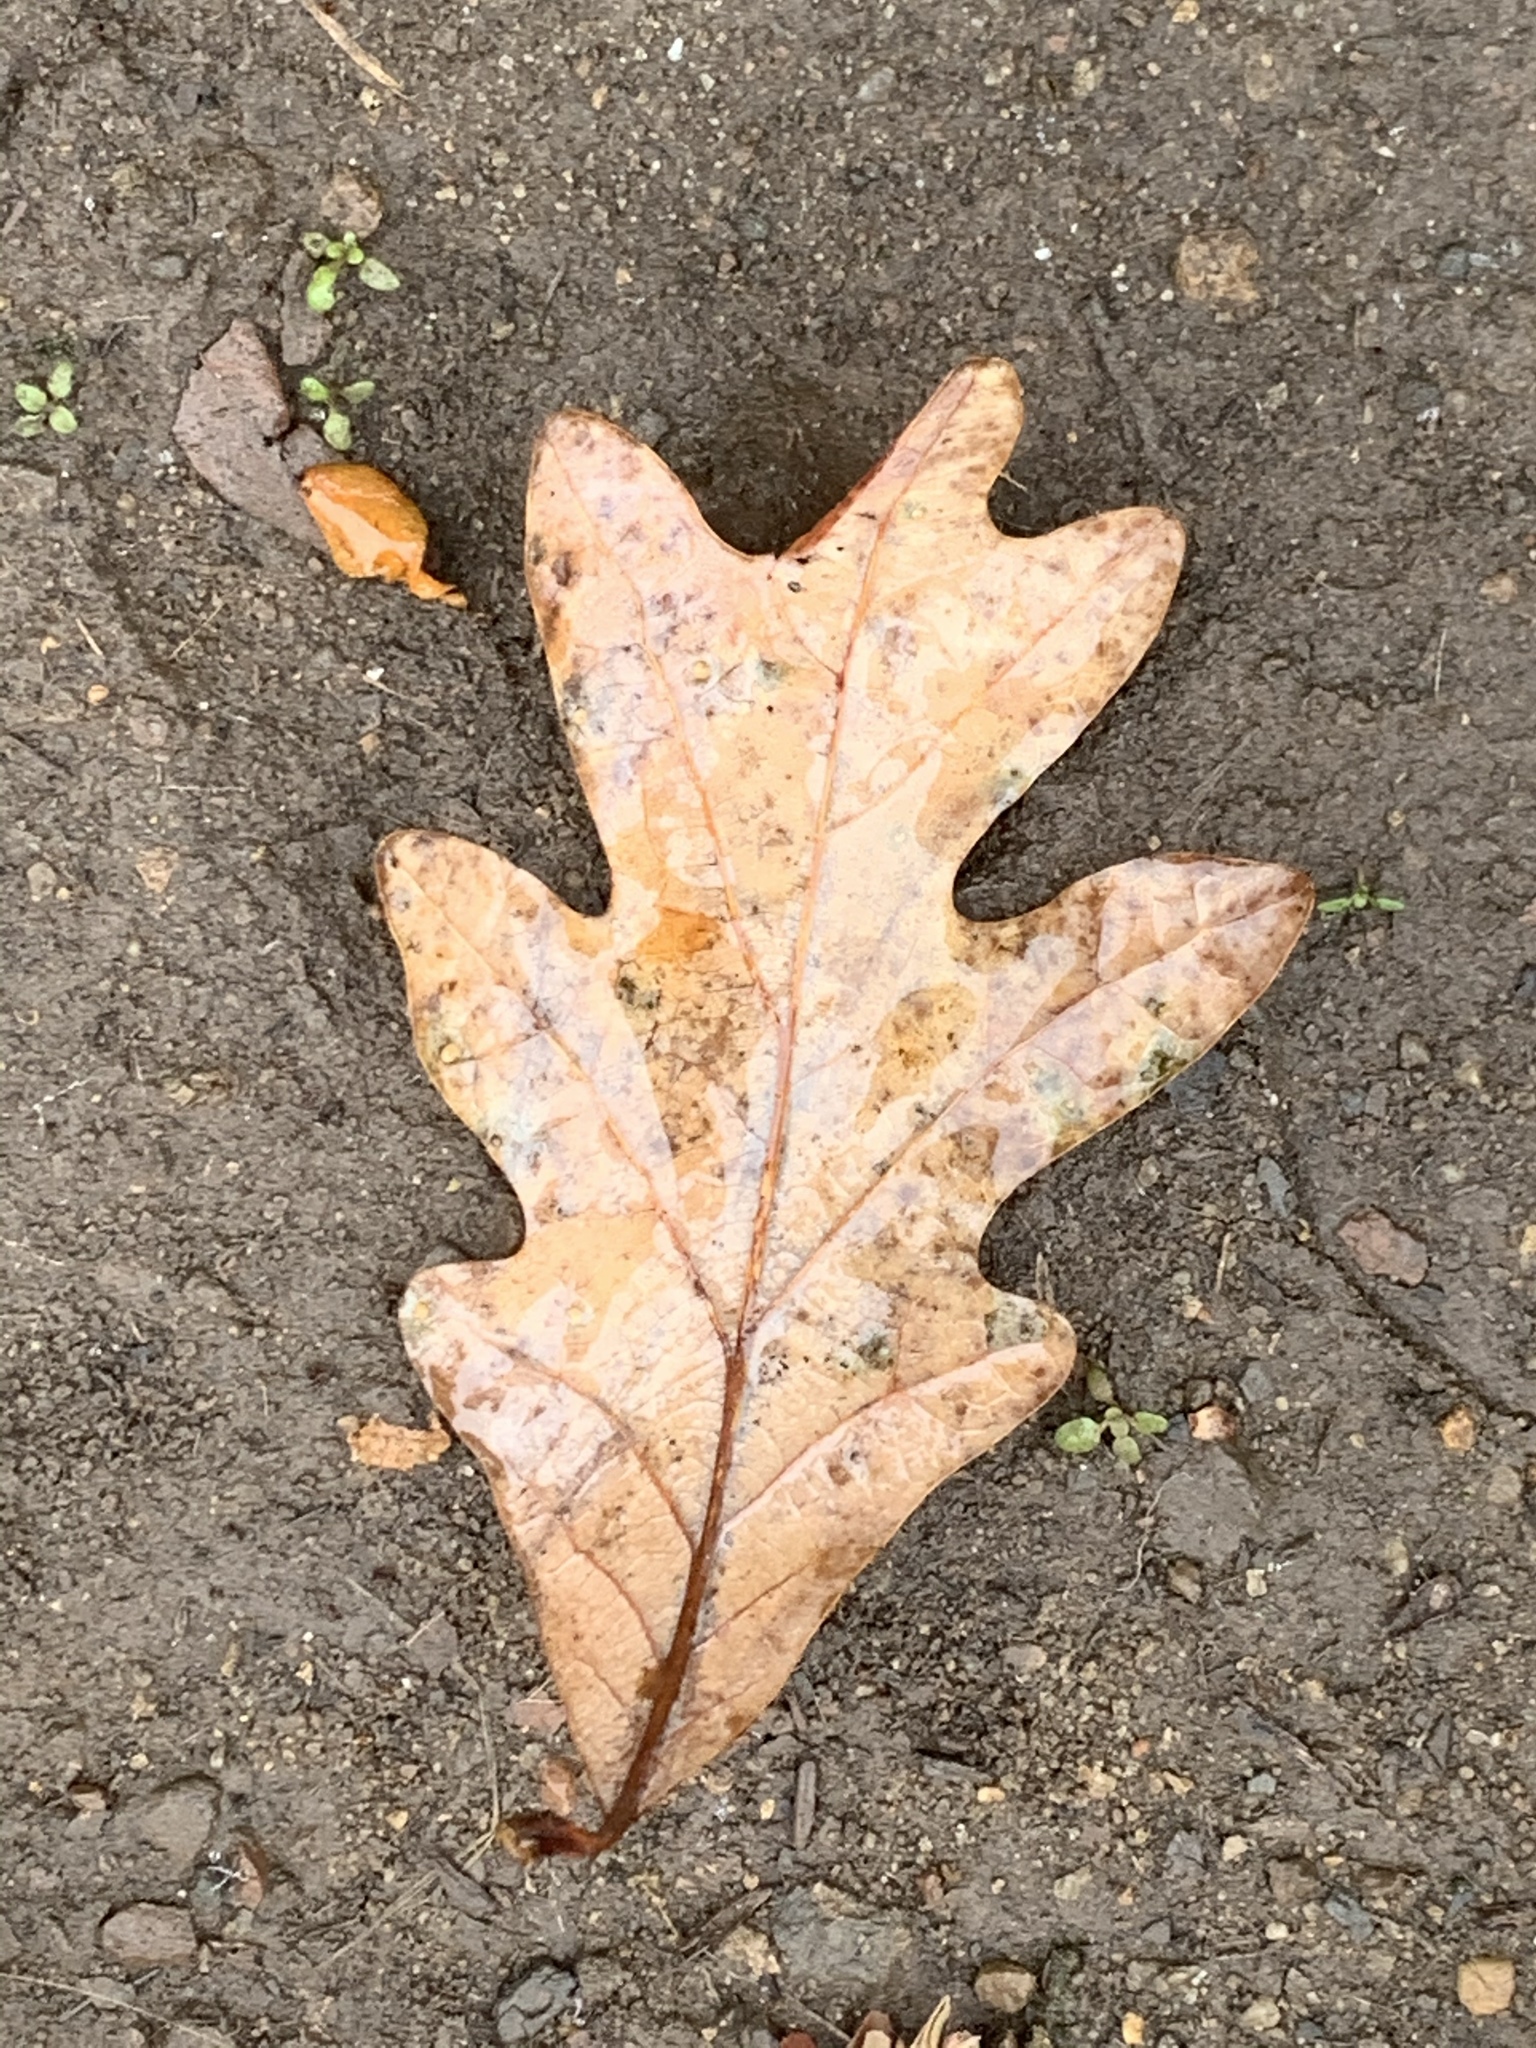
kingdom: Plantae
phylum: Tracheophyta
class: Magnoliopsida
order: Fagales
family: Fagaceae
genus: Quercus
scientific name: Quercus alba
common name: White oak
